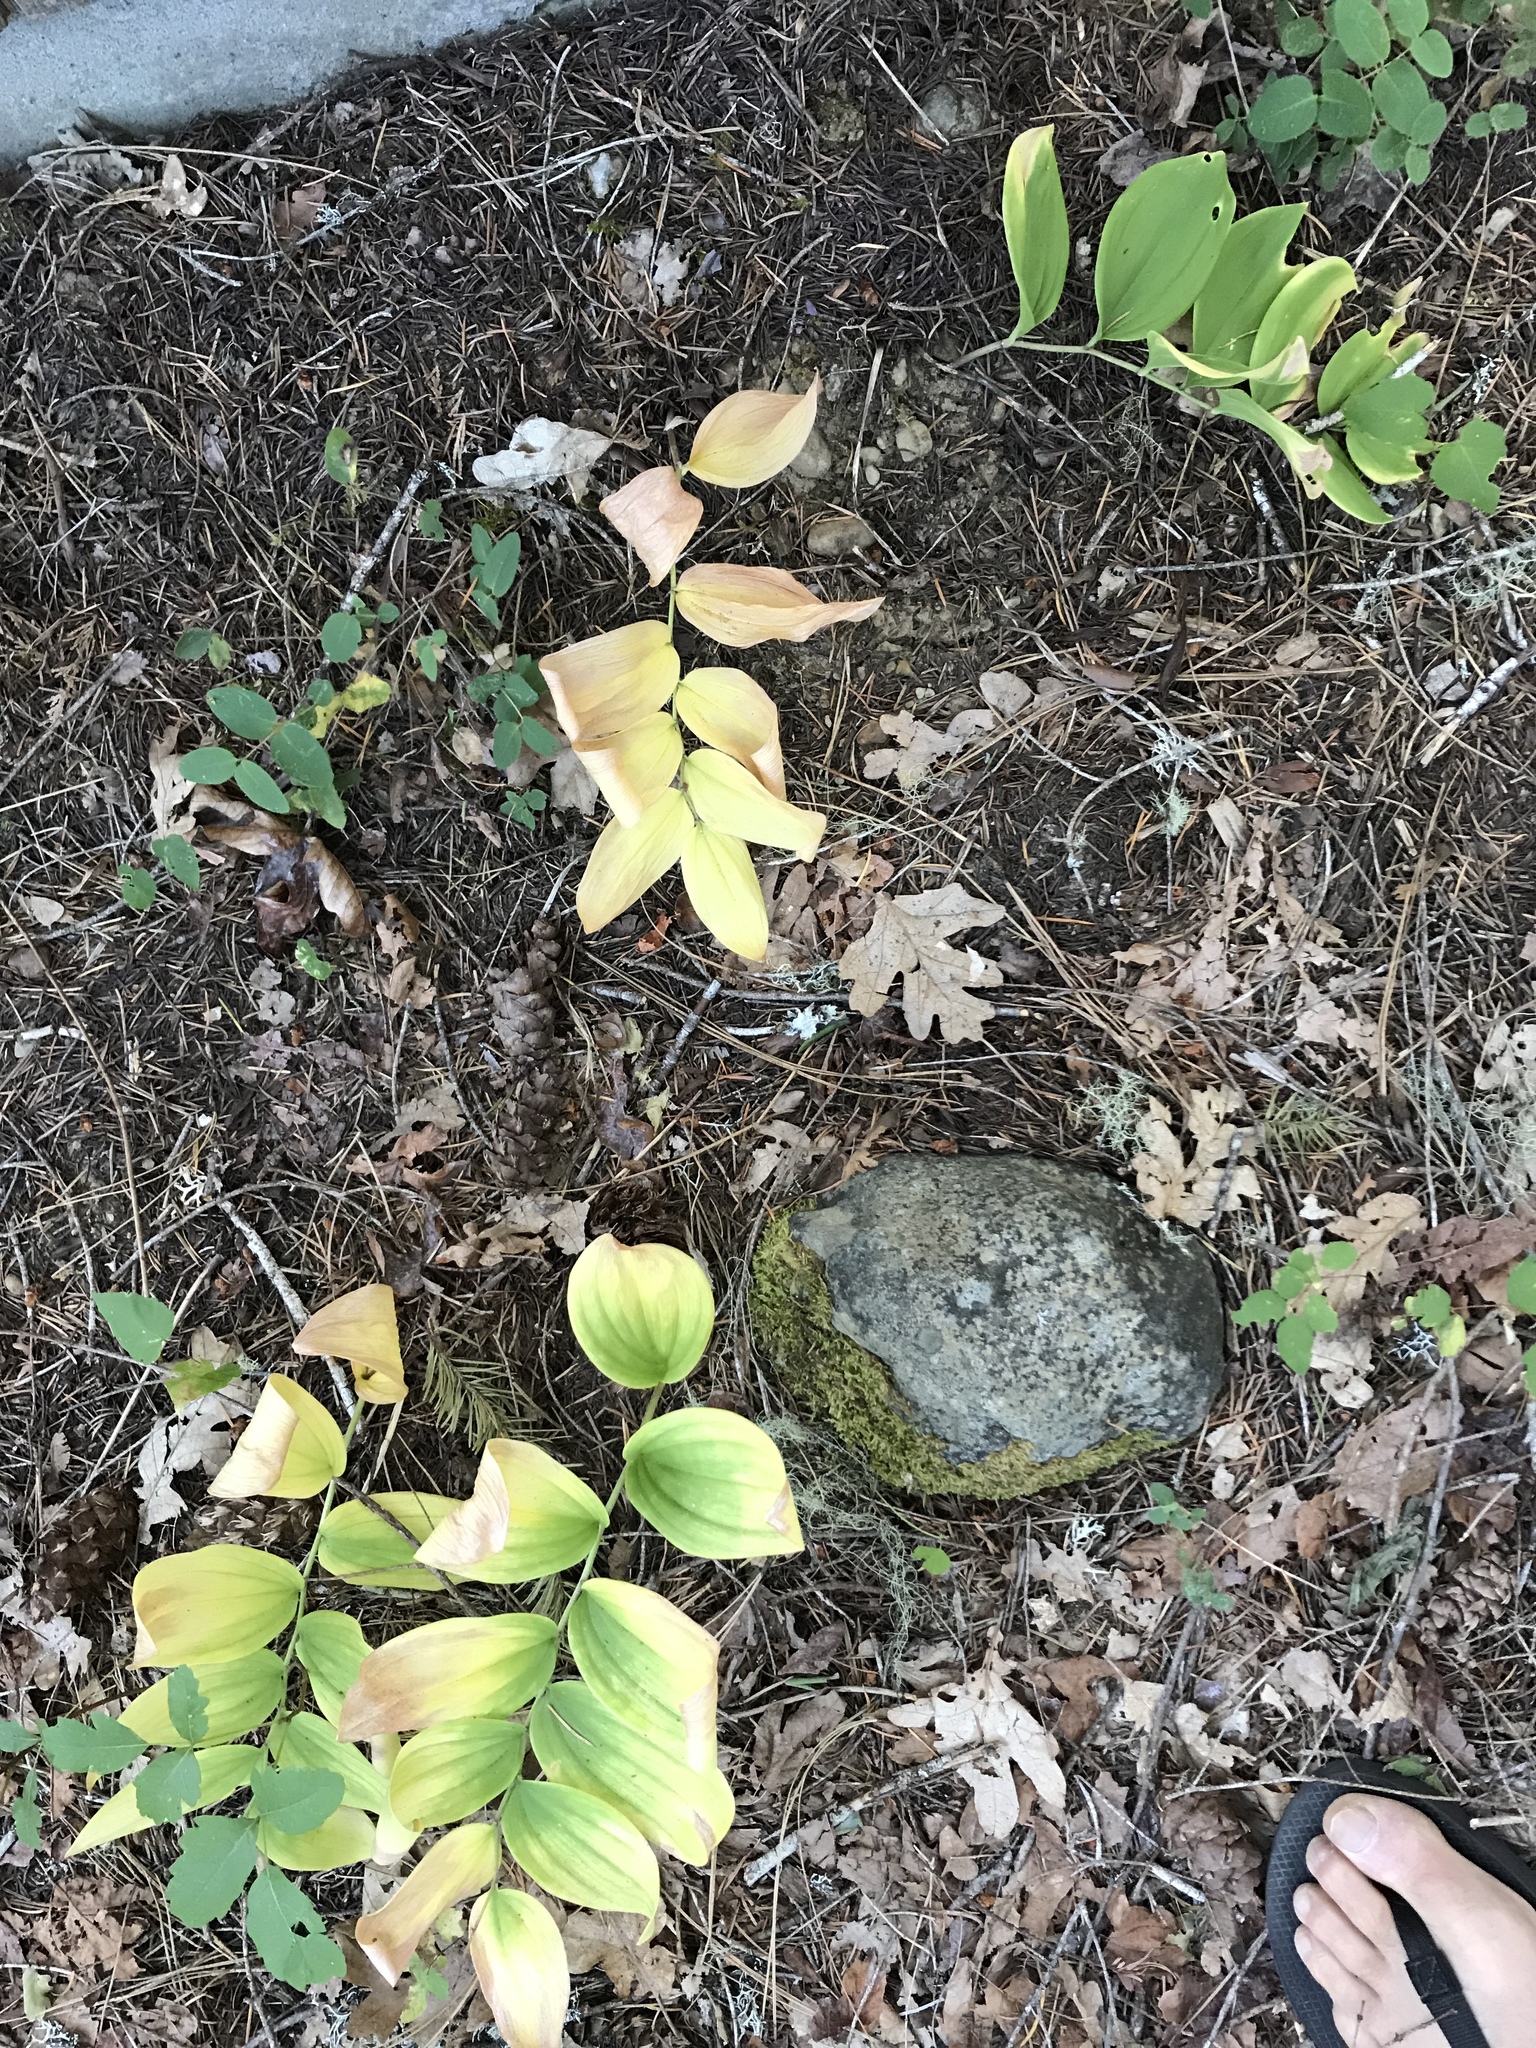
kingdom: Plantae
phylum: Tracheophyta
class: Liliopsida
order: Asparagales
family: Asparagaceae
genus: Maianthemum
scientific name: Maianthemum racemosum
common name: False spikenard
